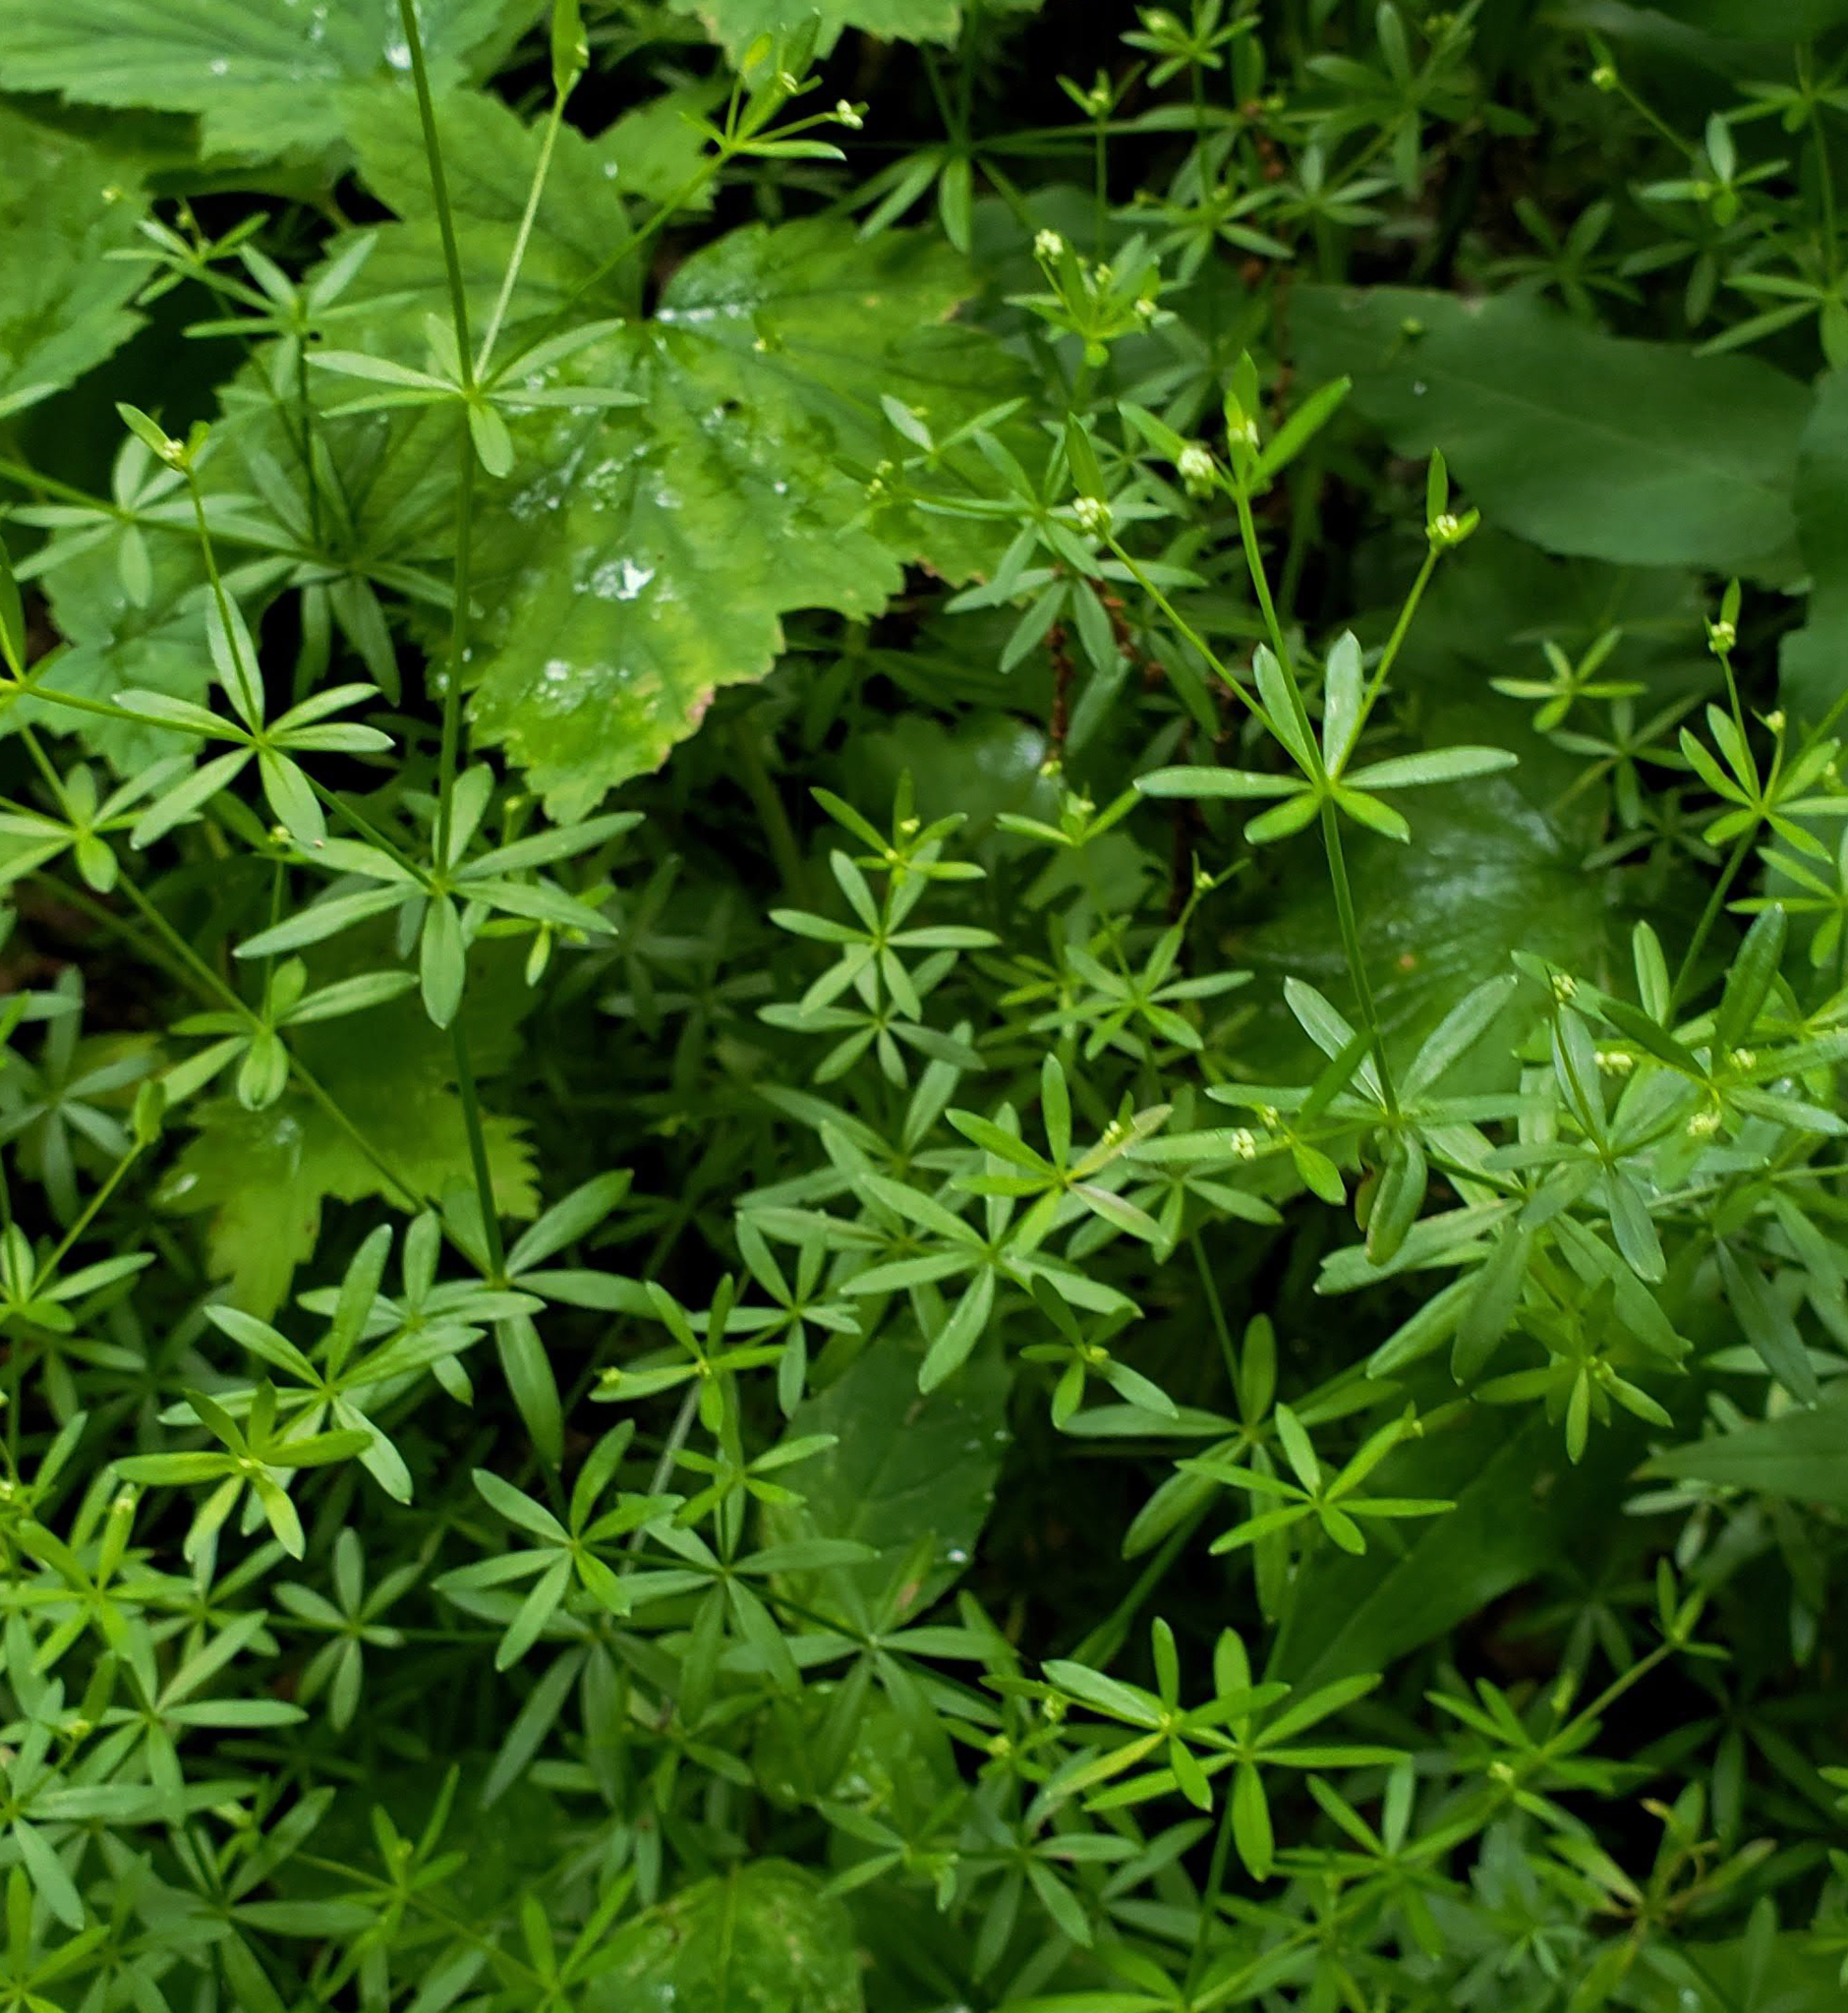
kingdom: Plantae
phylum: Tracheophyta
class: Magnoliopsida
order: Gentianales
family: Rubiaceae
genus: Galium
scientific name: Galium concinnum
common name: Shining bedstraw
